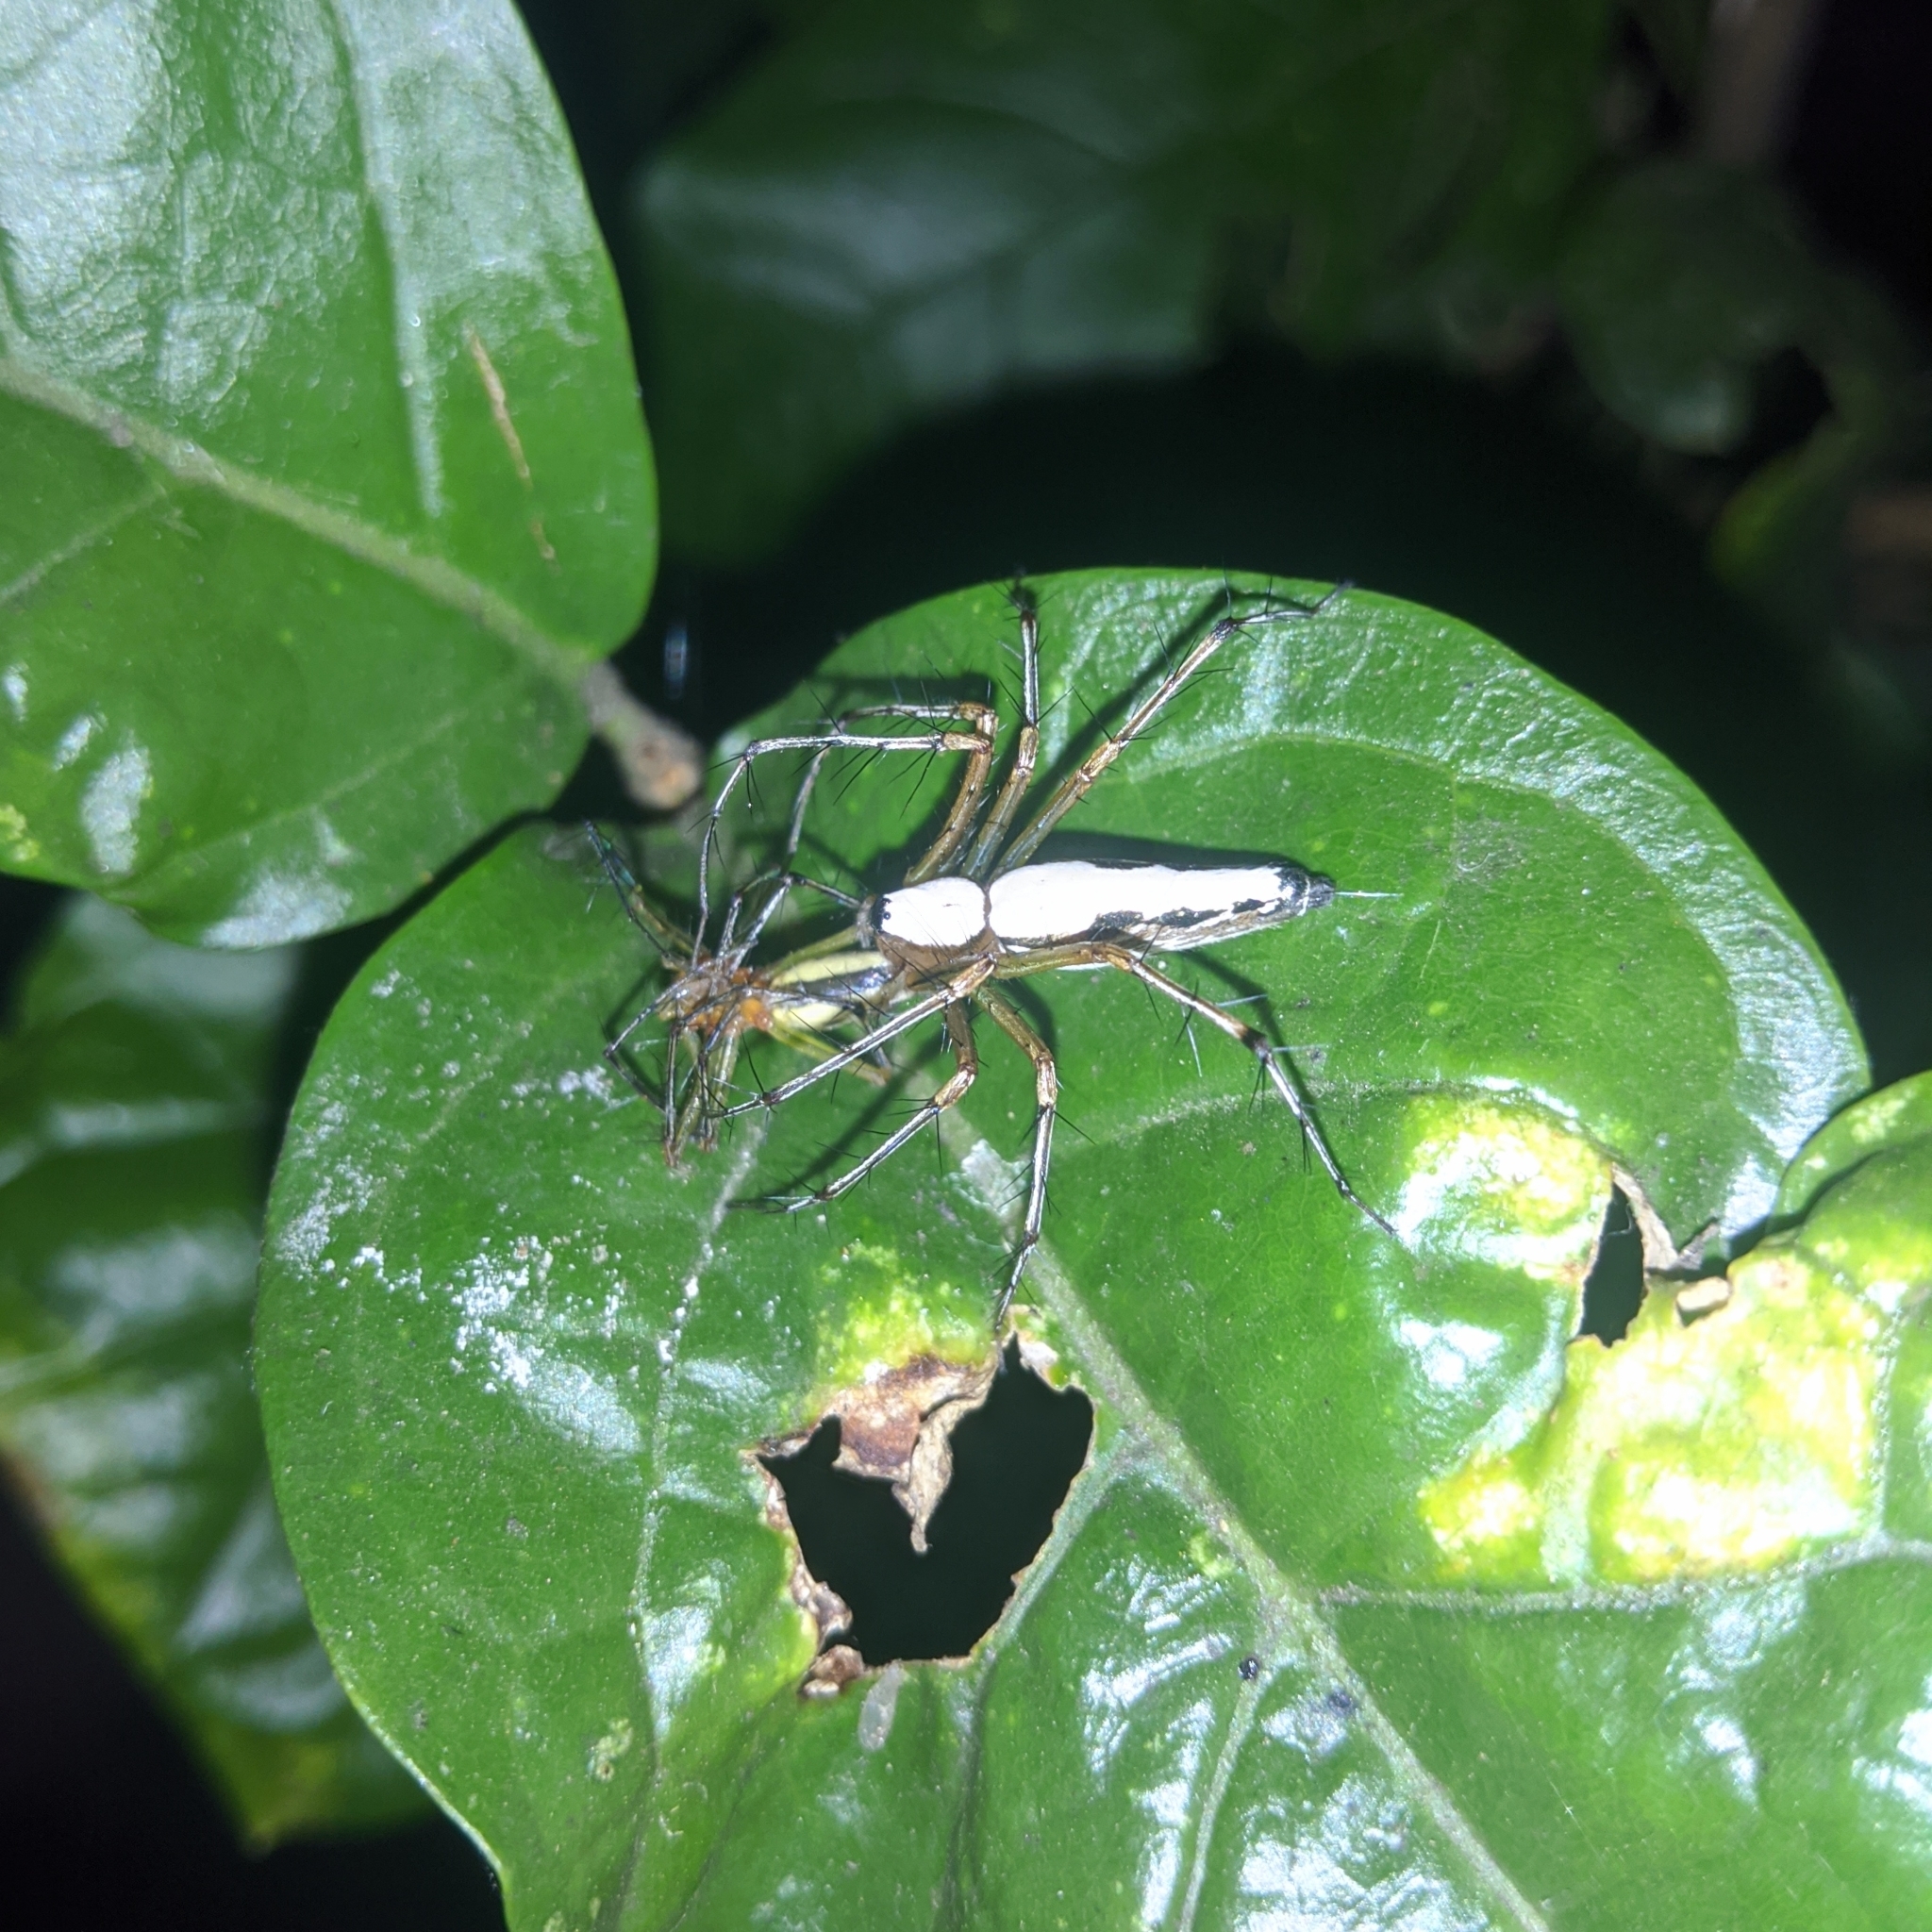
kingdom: Animalia
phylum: Arthropoda
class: Arachnida
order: Araneae
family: Oxyopidae
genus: Oxyopes
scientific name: Oxyopes shweta
